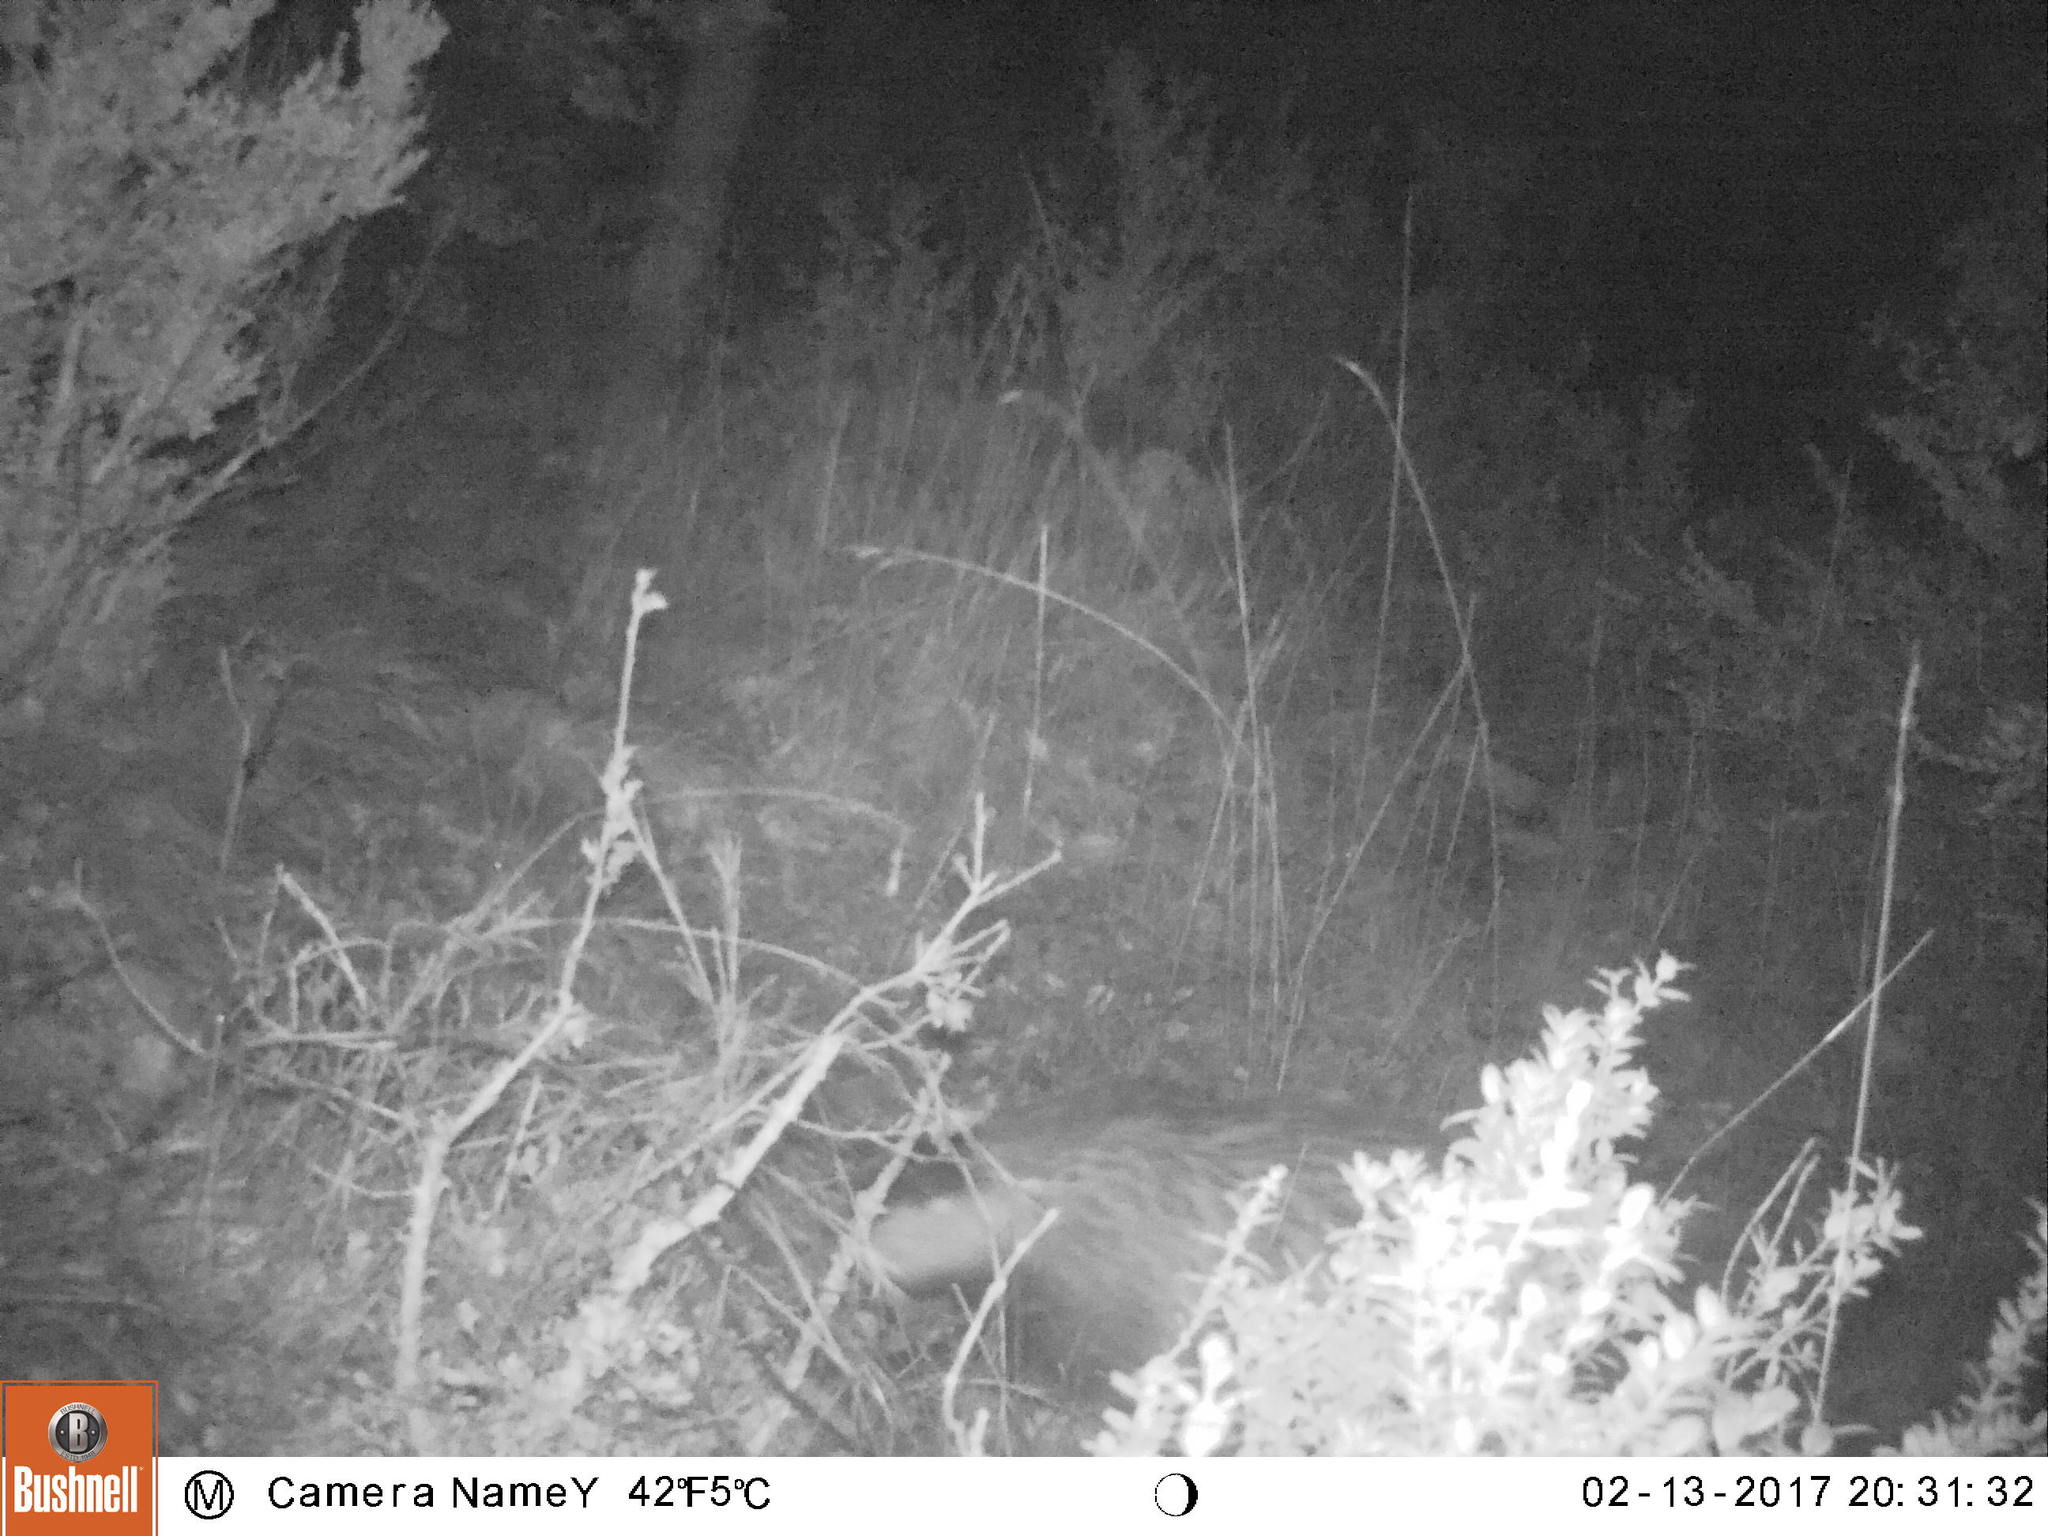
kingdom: Animalia
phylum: Chordata
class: Mammalia
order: Carnivora
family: Mustelidae
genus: Meles
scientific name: Meles meles
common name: Eurasian badger
